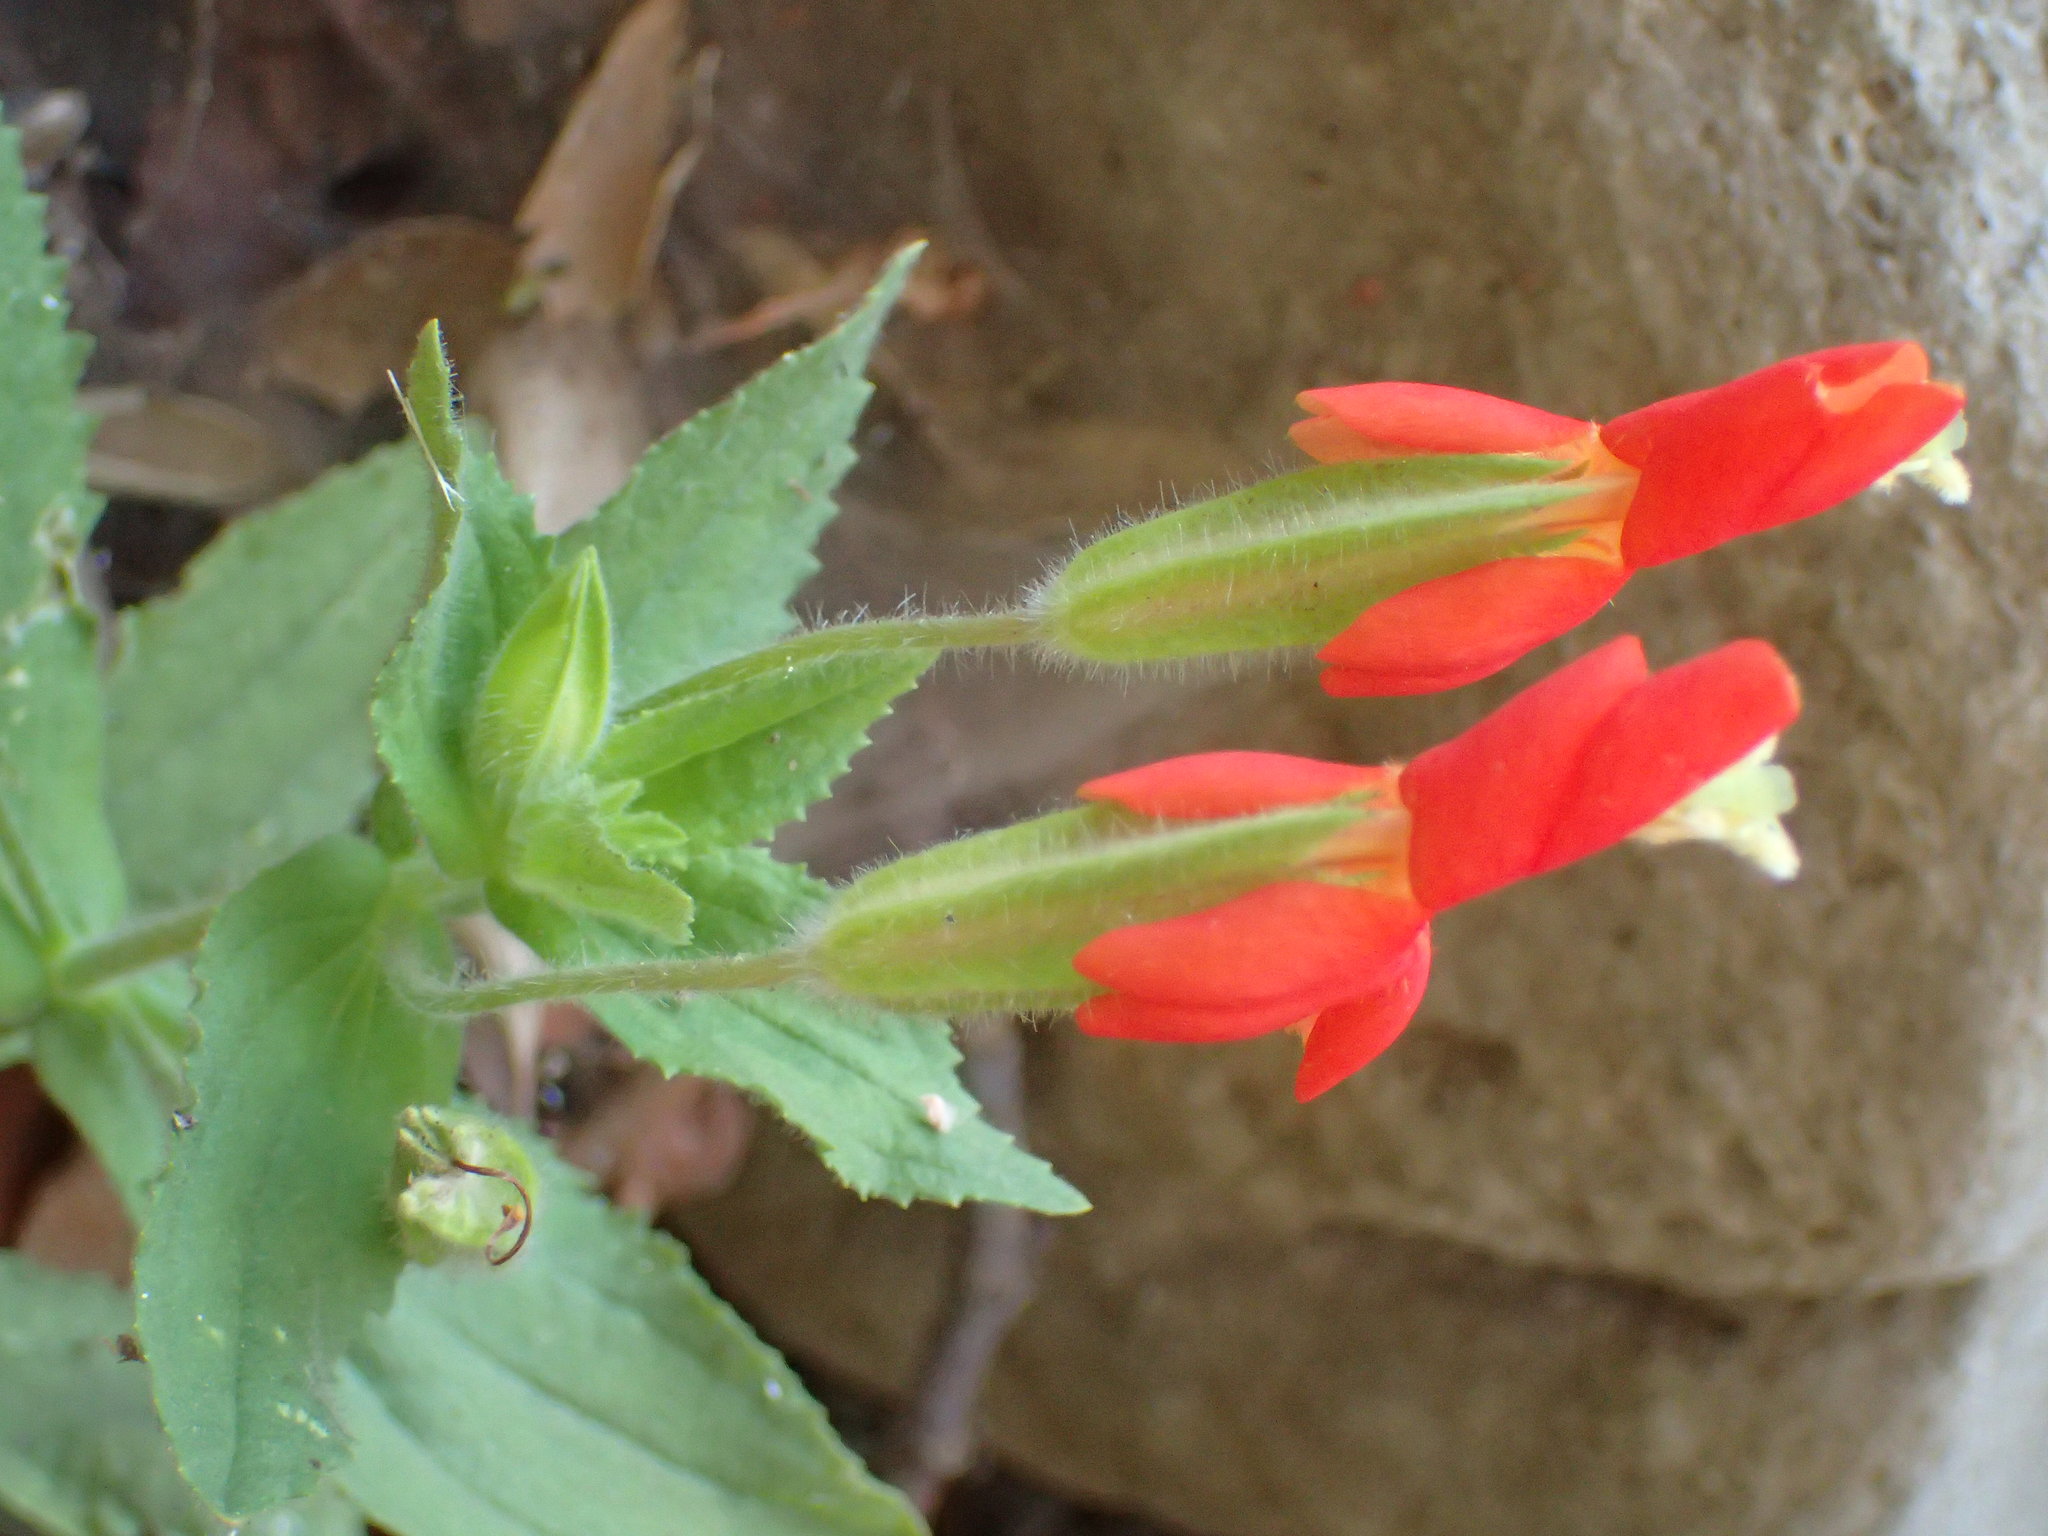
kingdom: Plantae
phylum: Tracheophyta
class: Magnoliopsida
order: Lamiales
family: Phrymaceae
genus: Erythranthe
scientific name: Erythranthe cardinalis
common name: Scarlet monkey-flower
